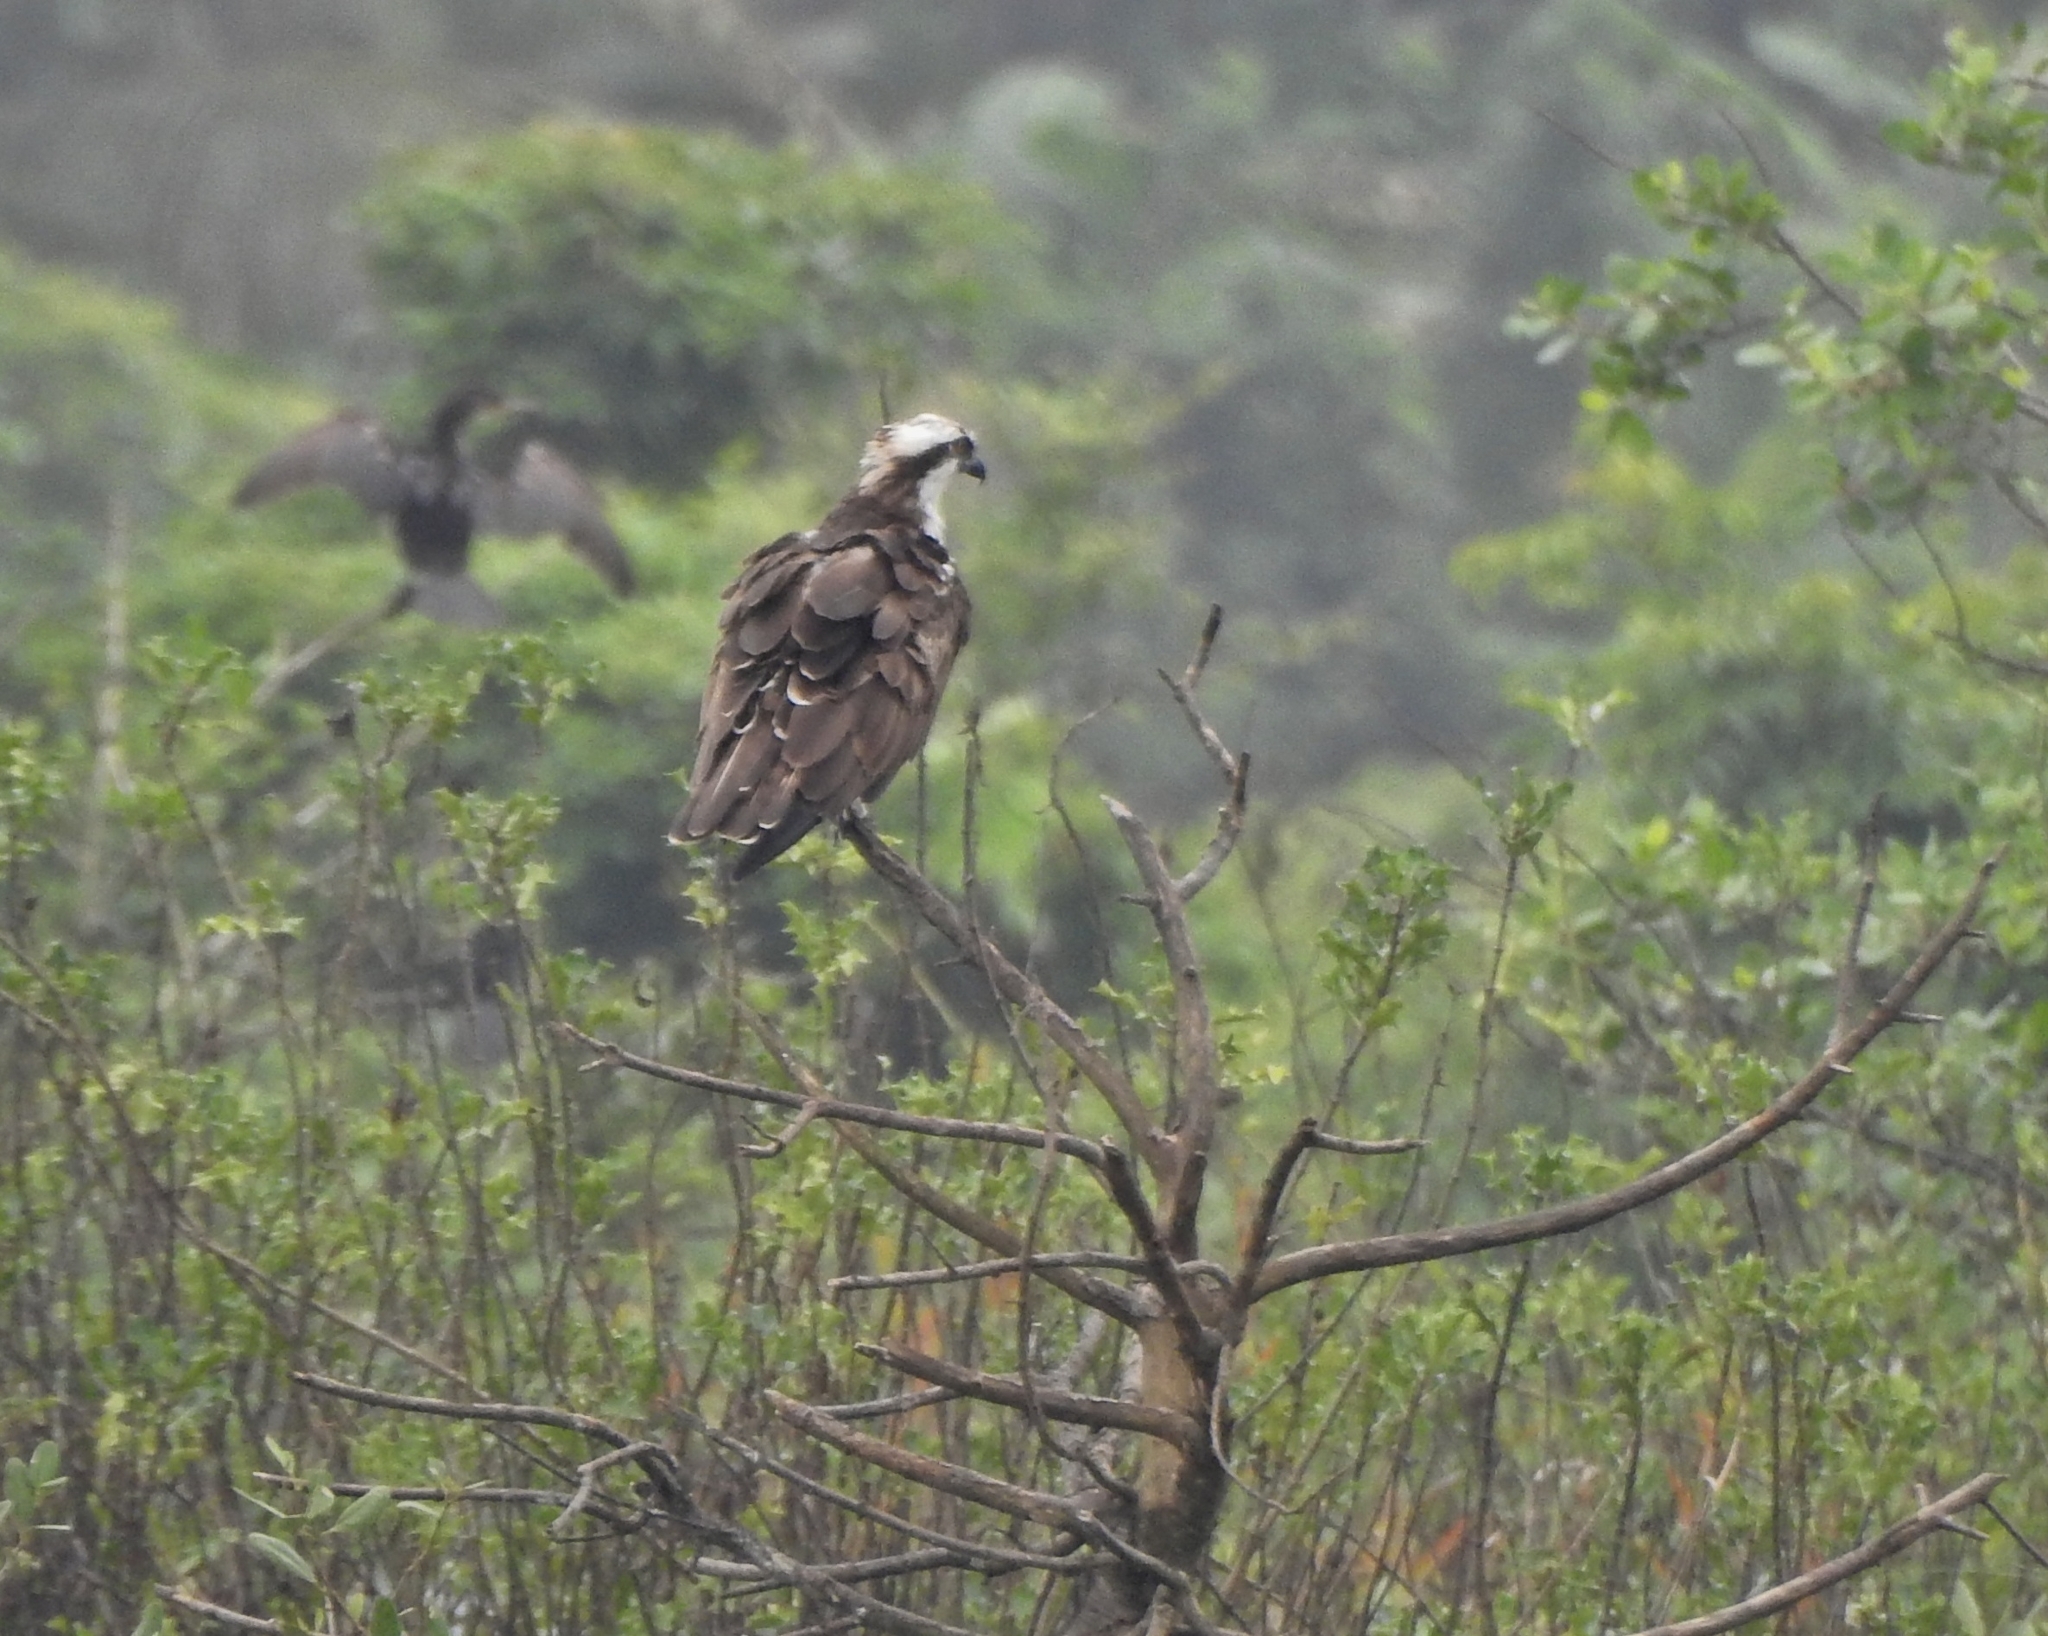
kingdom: Animalia
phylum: Chordata
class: Aves
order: Accipitriformes
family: Pandionidae
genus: Pandion
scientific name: Pandion haliaetus
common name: Osprey
